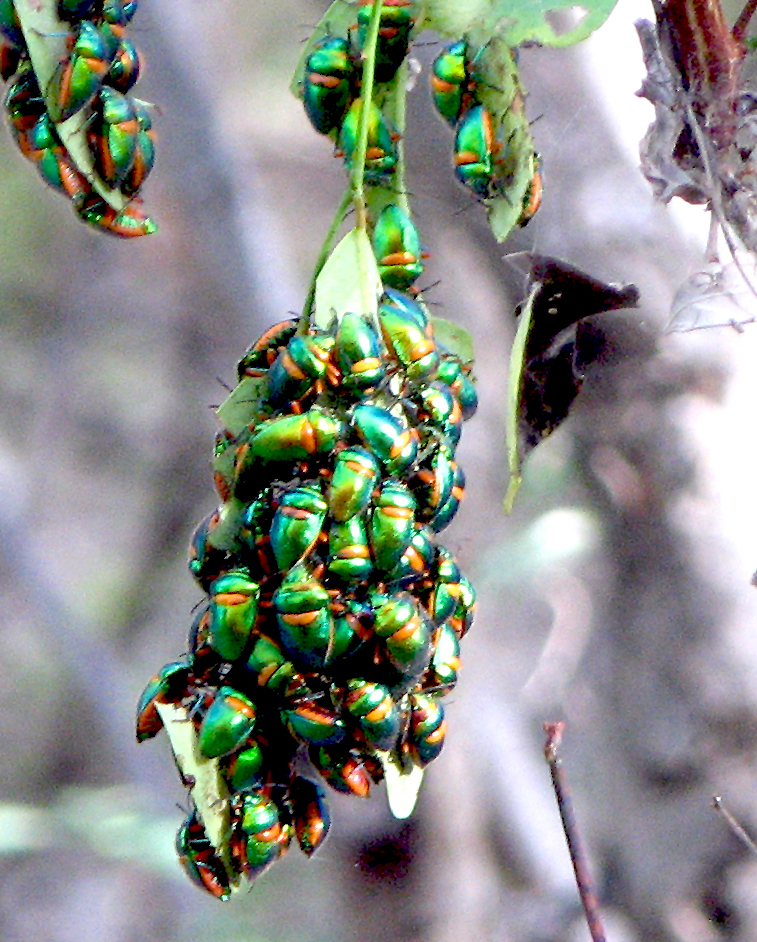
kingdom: Animalia
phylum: Arthropoda
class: Insecta
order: Hemiptera
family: Scutelleridae
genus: Lampromicra
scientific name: Lampromicra senator
